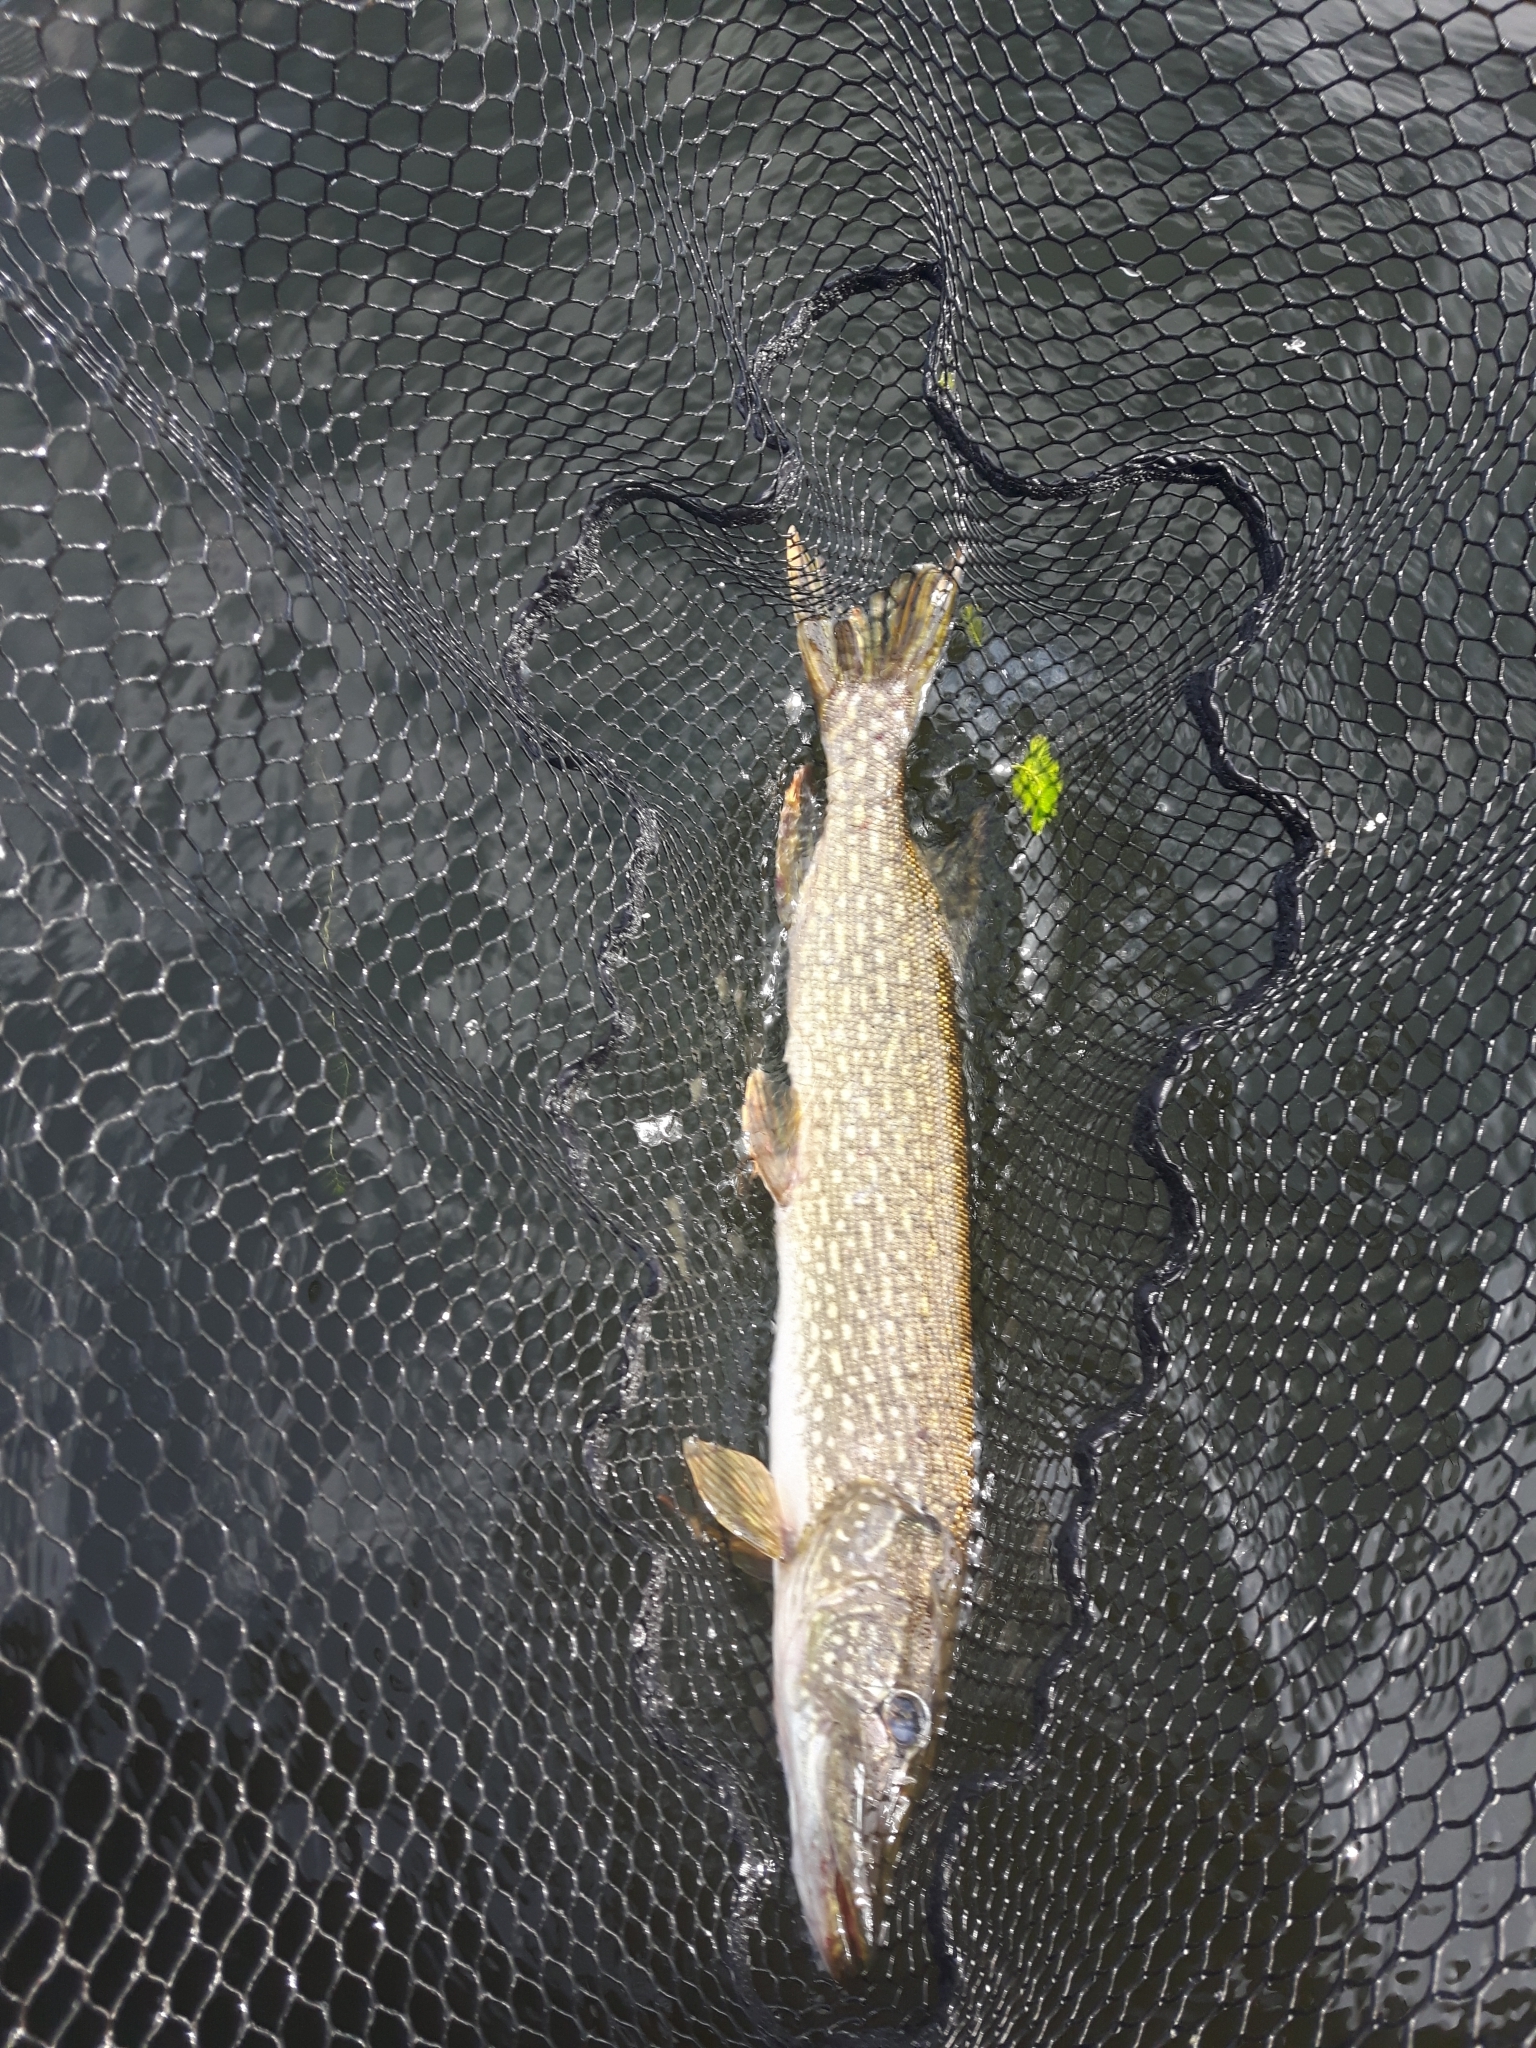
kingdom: Animalia
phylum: Chordata
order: Esociformes
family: Esocidae
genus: Esox
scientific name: Esox lucius
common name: Northern pike
